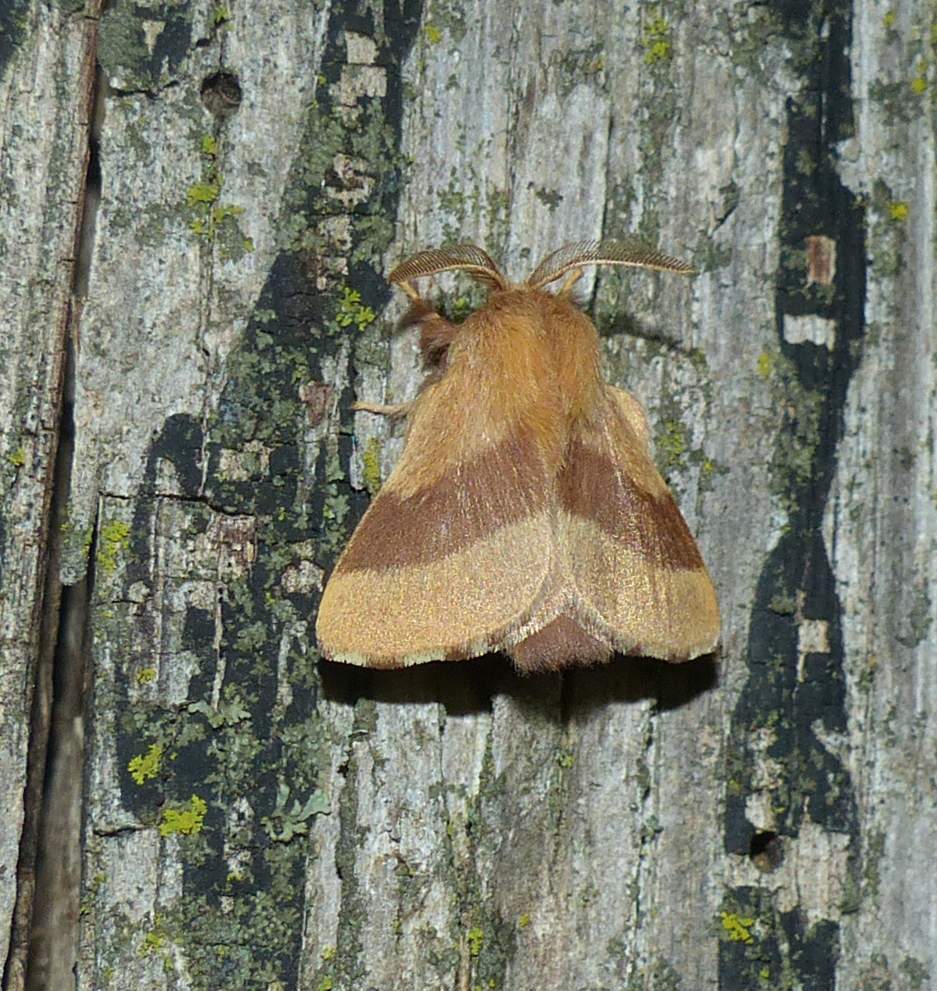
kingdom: Animalia
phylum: Arthropoda
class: Insecta
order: Lepidoptera
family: Lasiocampidae
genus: Malacosoma
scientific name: Malacosoma disstria
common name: Forest tent caterpillar
